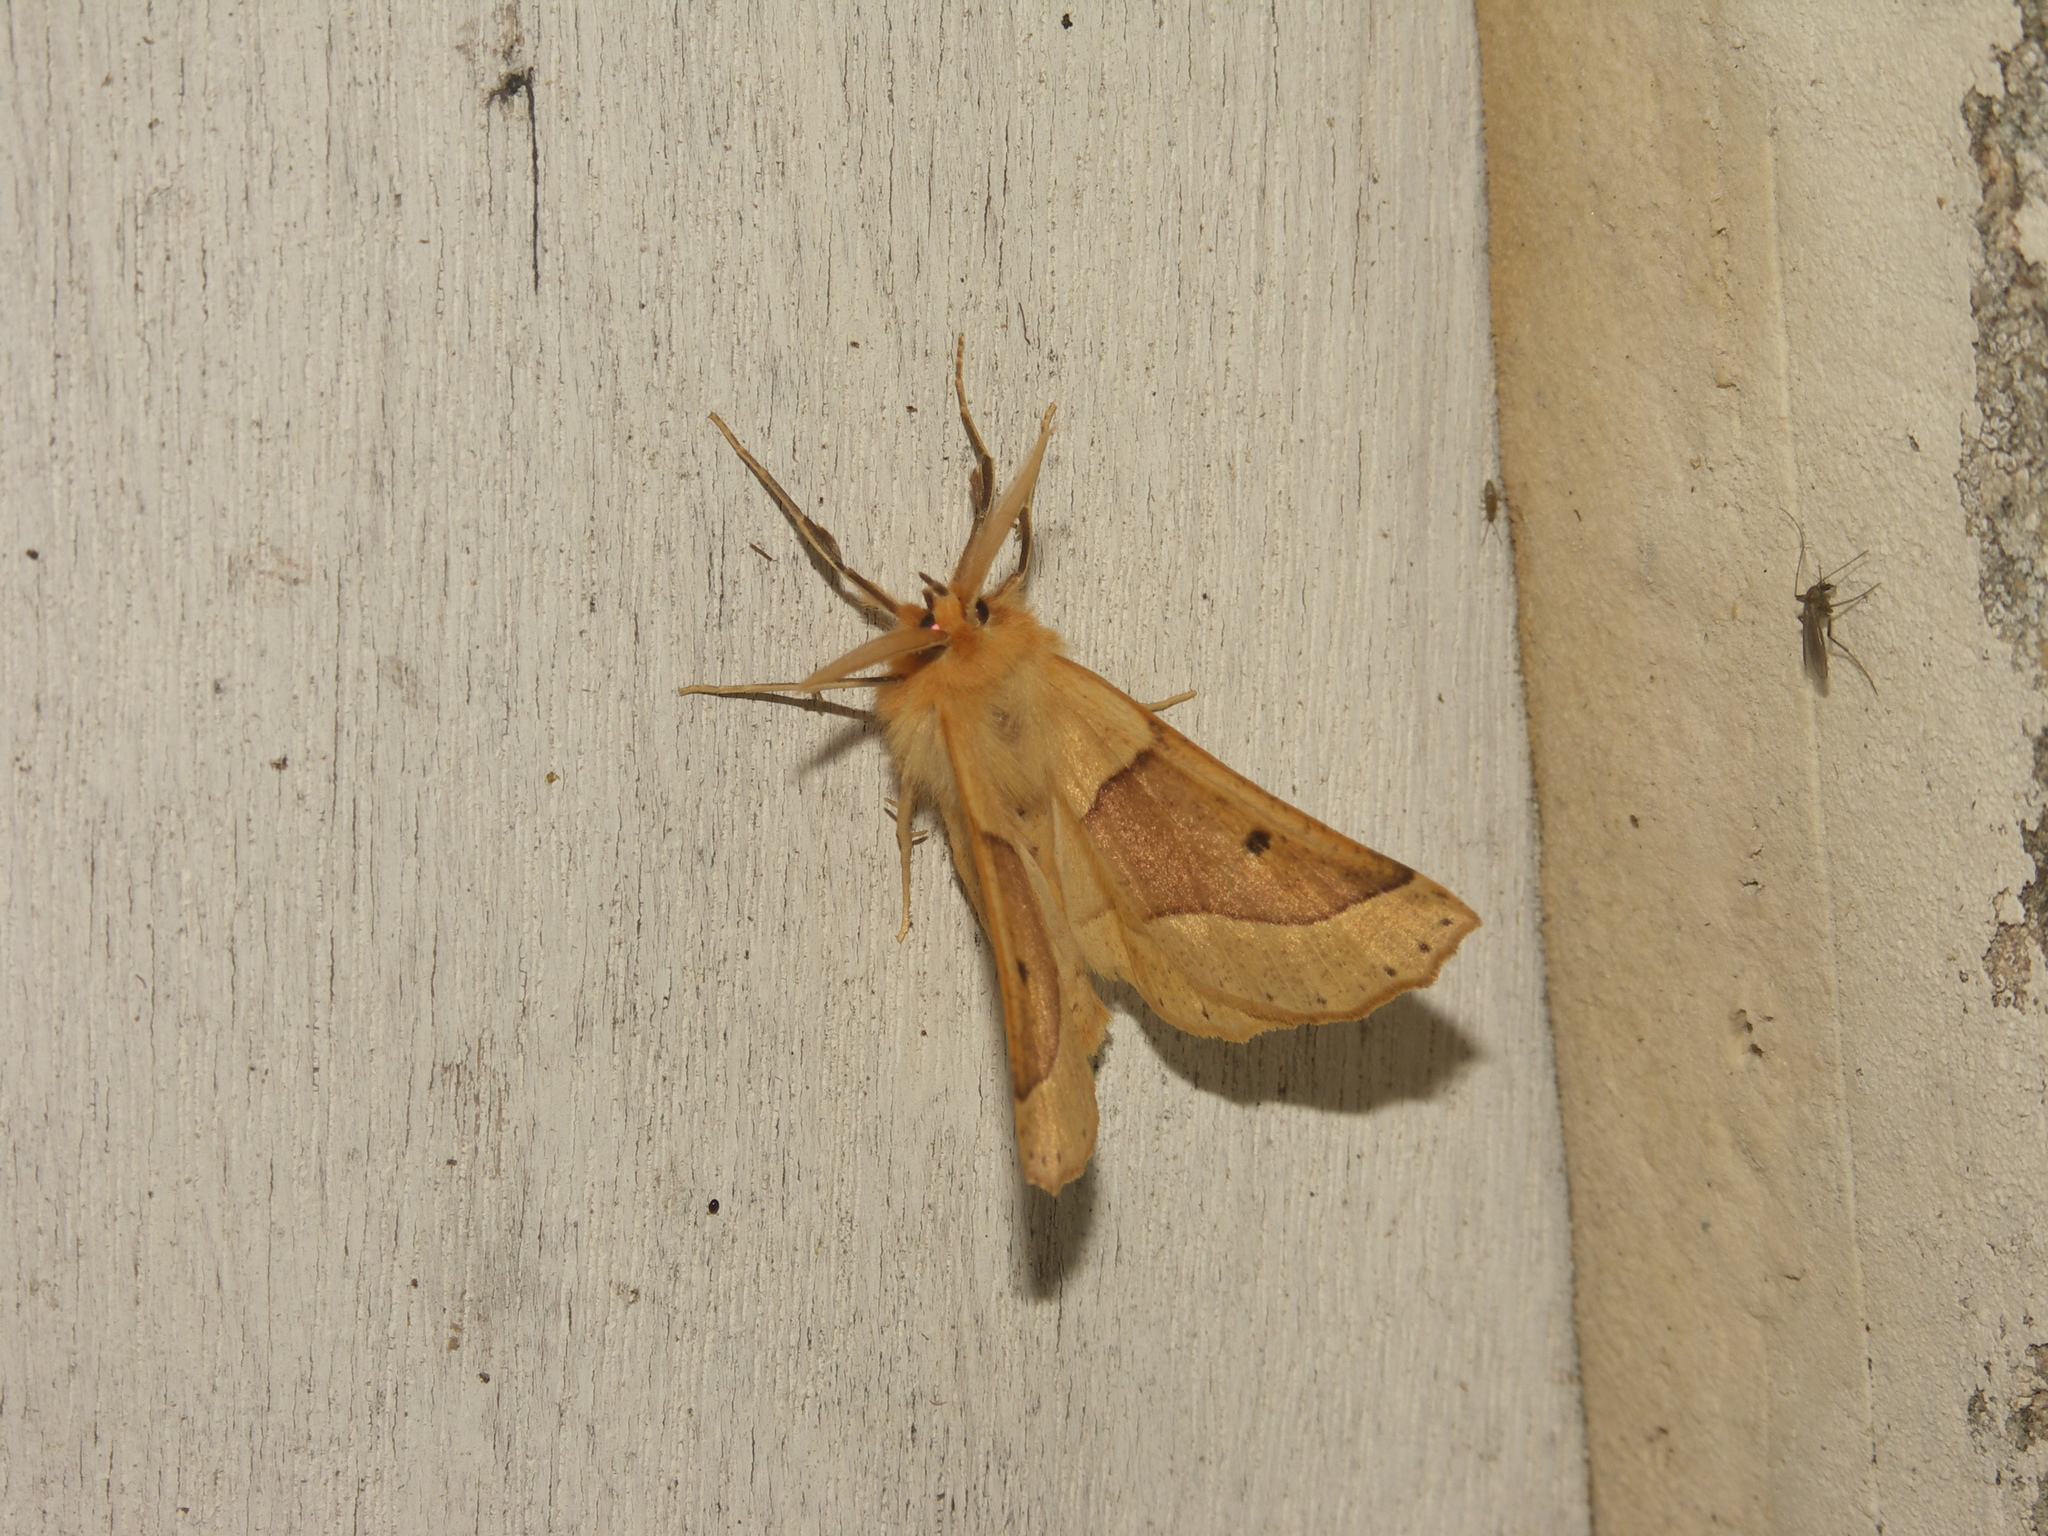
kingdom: Animalia
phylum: Arthropoda
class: Insecta
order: Lepidoptera
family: Geometridae
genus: Crocallis
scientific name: Crocallis elinguaria
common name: Scalloped oak
